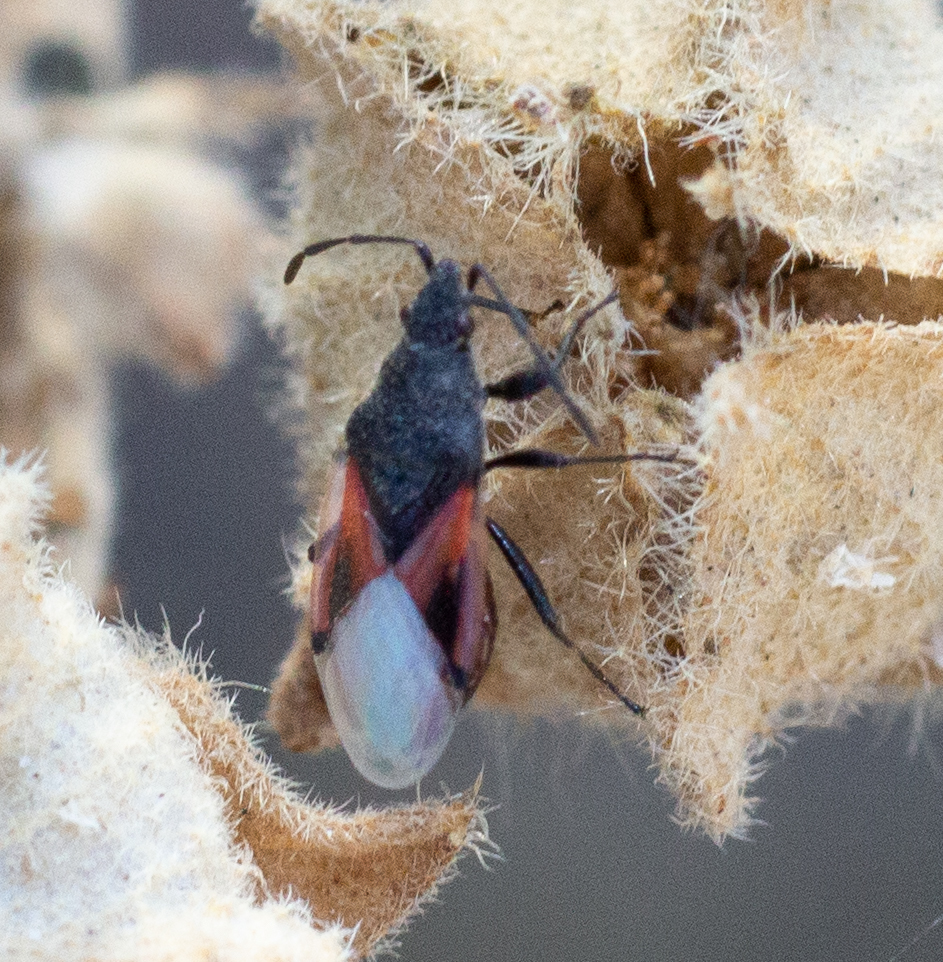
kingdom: Animalia
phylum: Arthropoda
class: Insecta
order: Hemiptera
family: Oxycarenidae
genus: Oxycarenus
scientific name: Oxycarenus lavaterae
